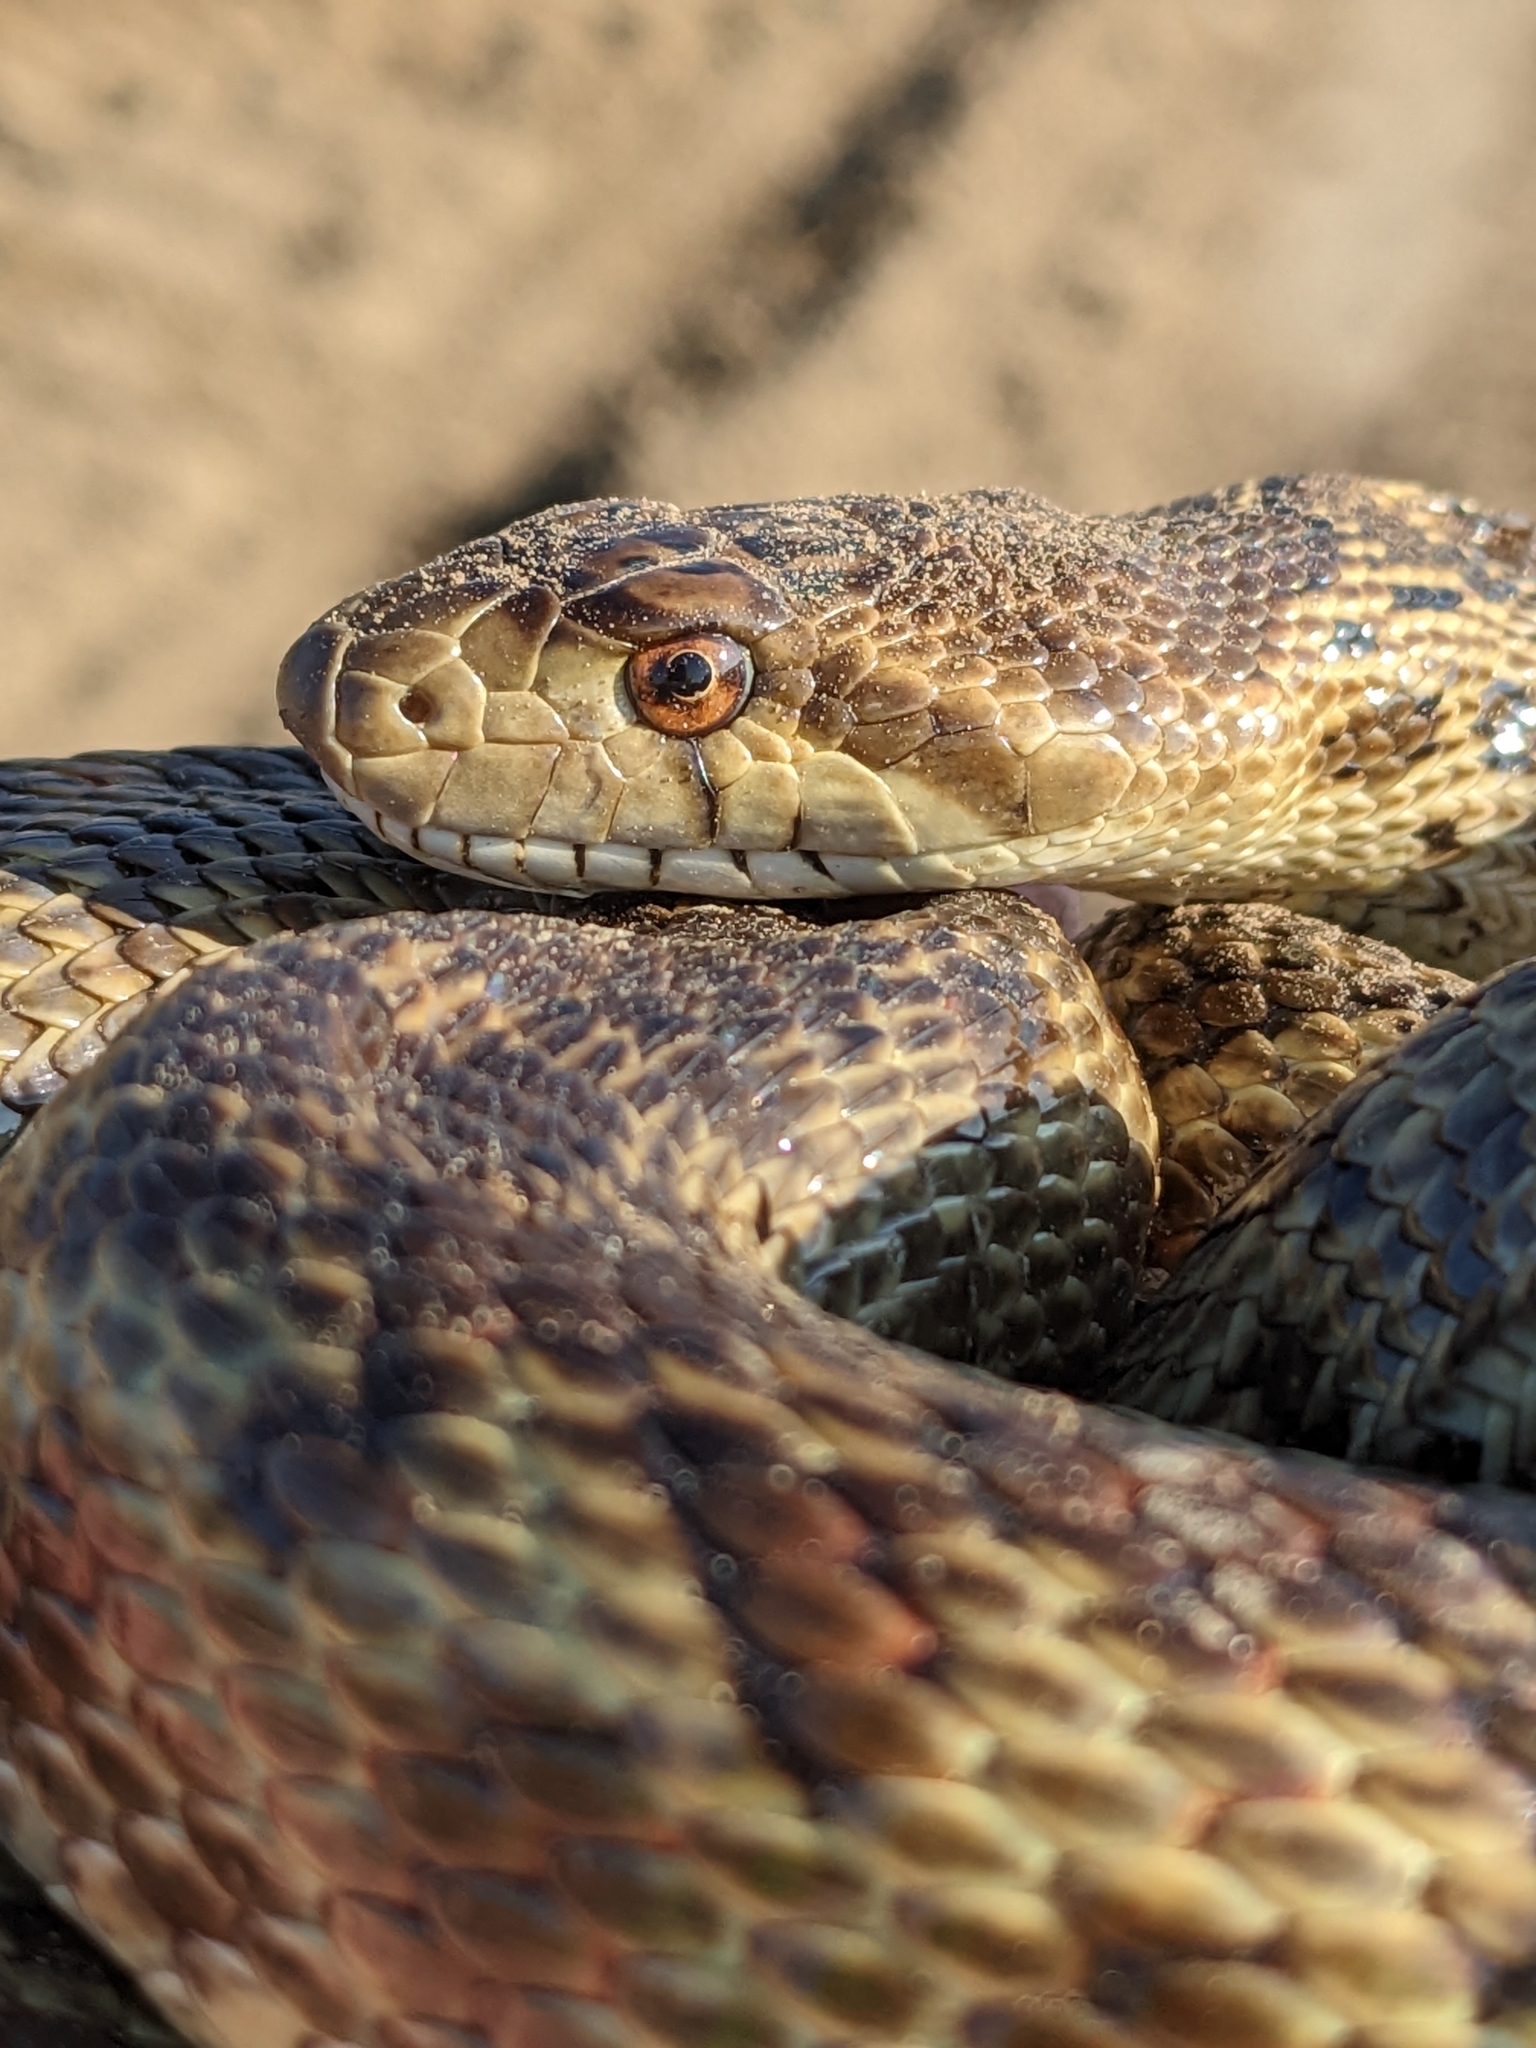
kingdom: Animalia
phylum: Chordata
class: Squamata
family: Colubridae
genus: Pituophis
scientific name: Pituophis catenifer
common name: Gopher snake
